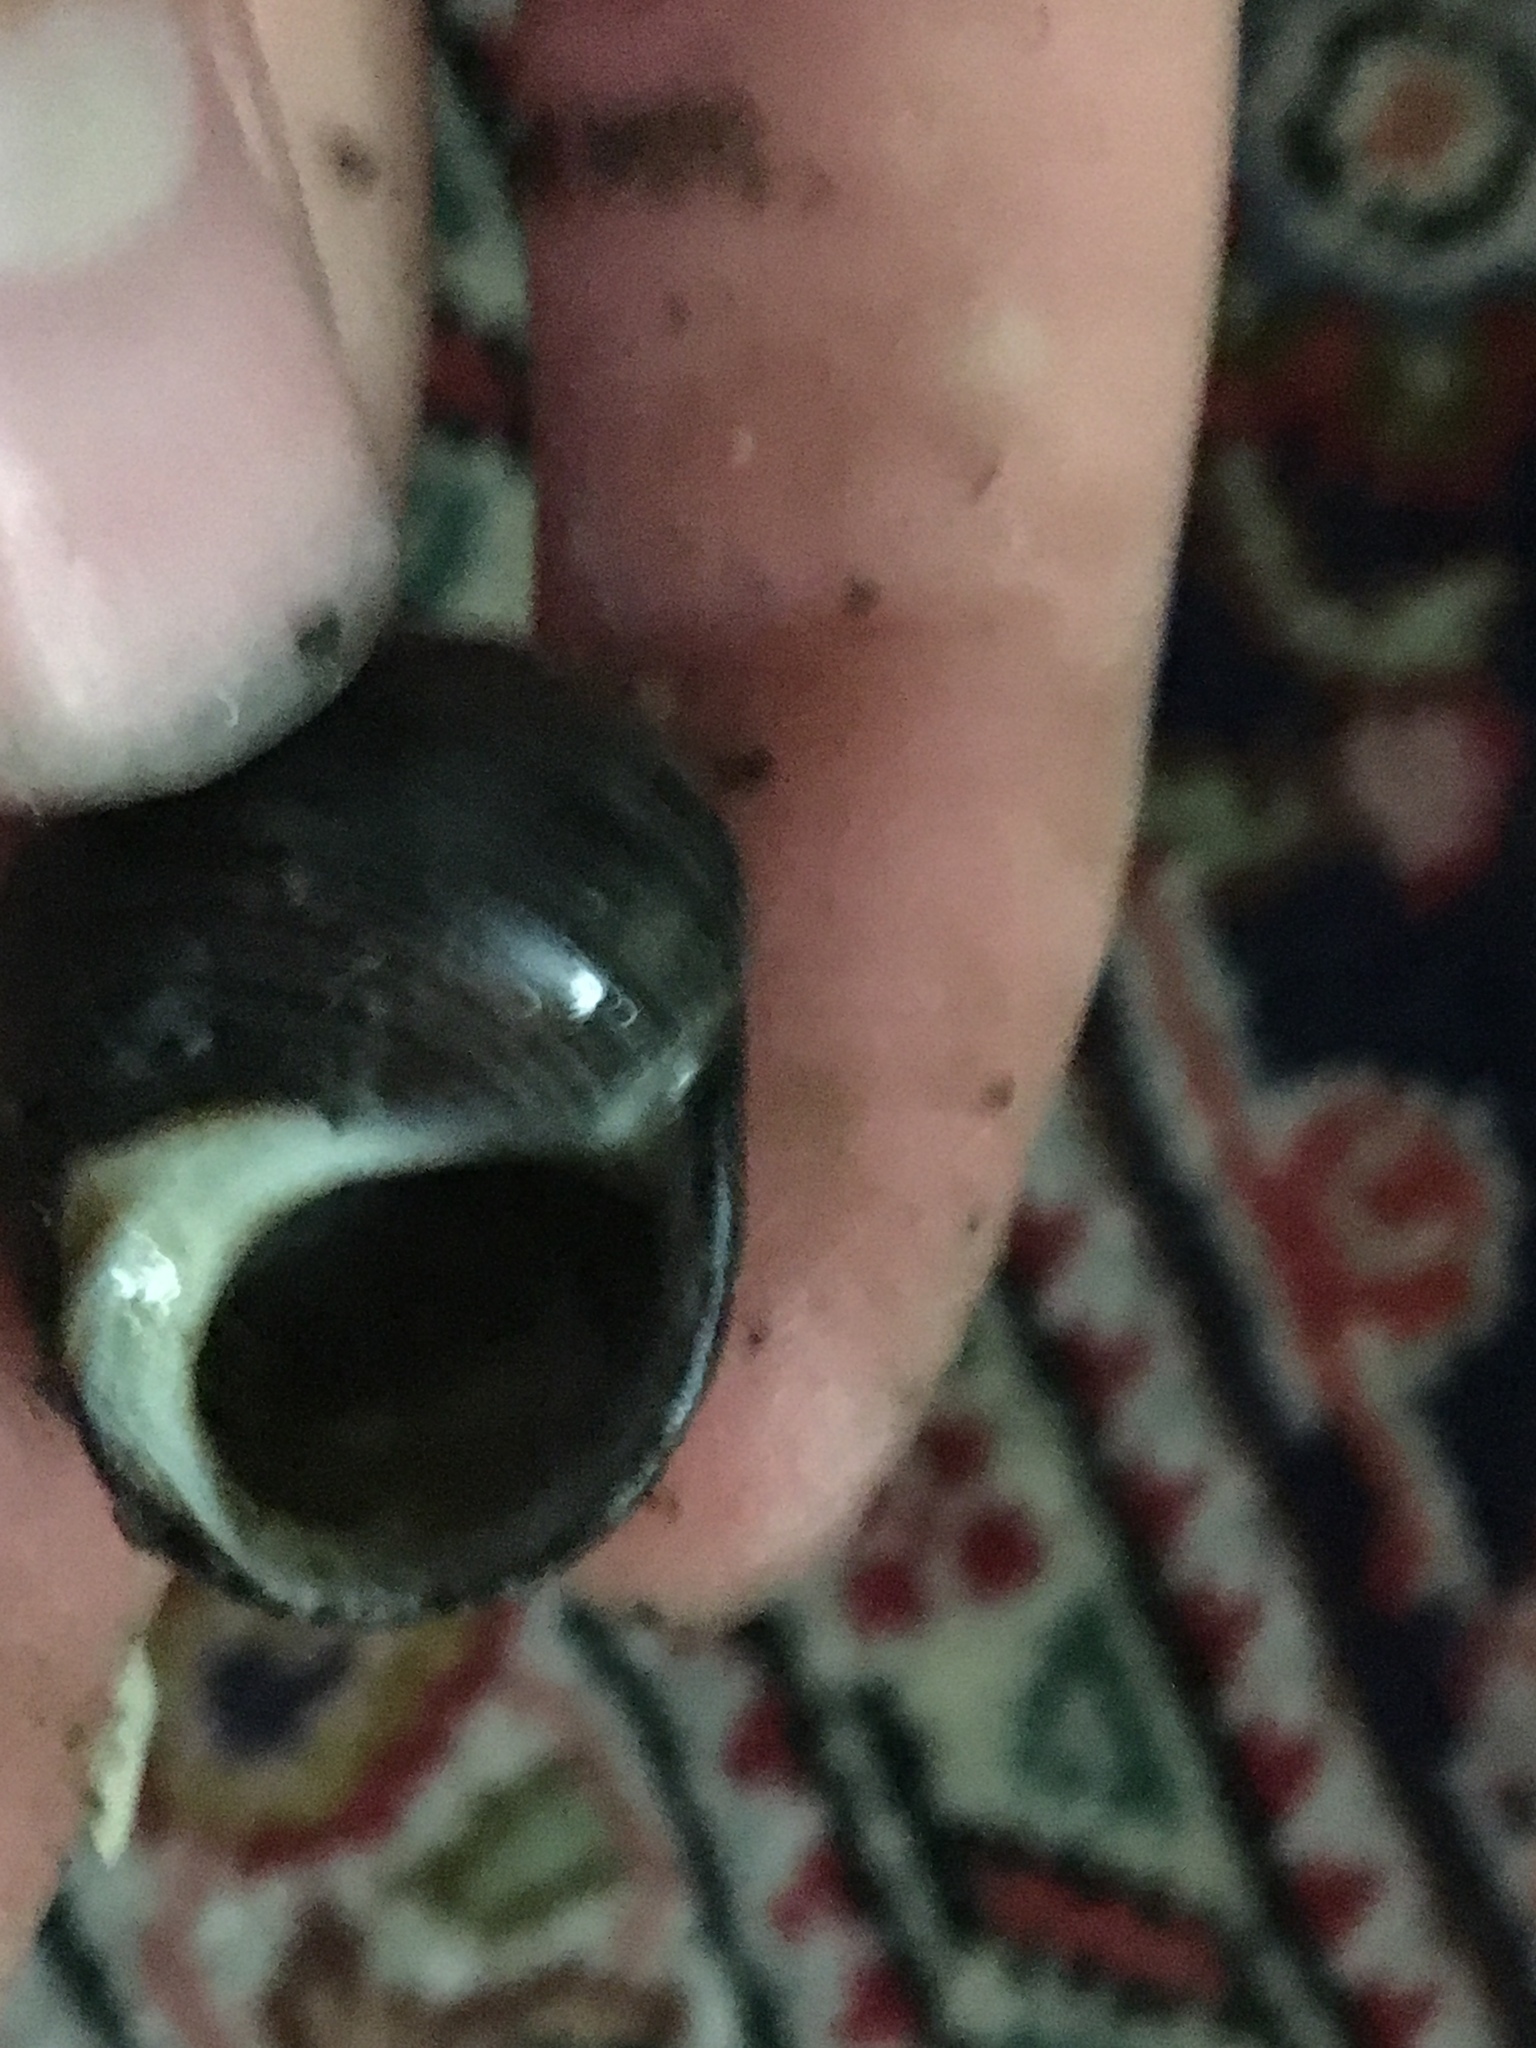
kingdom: Animalia
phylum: Mollusca
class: Gastropoda
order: Littorinimorpha
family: Littorinidae
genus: Littorina
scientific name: Littorina littorea
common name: Common periwinkle
